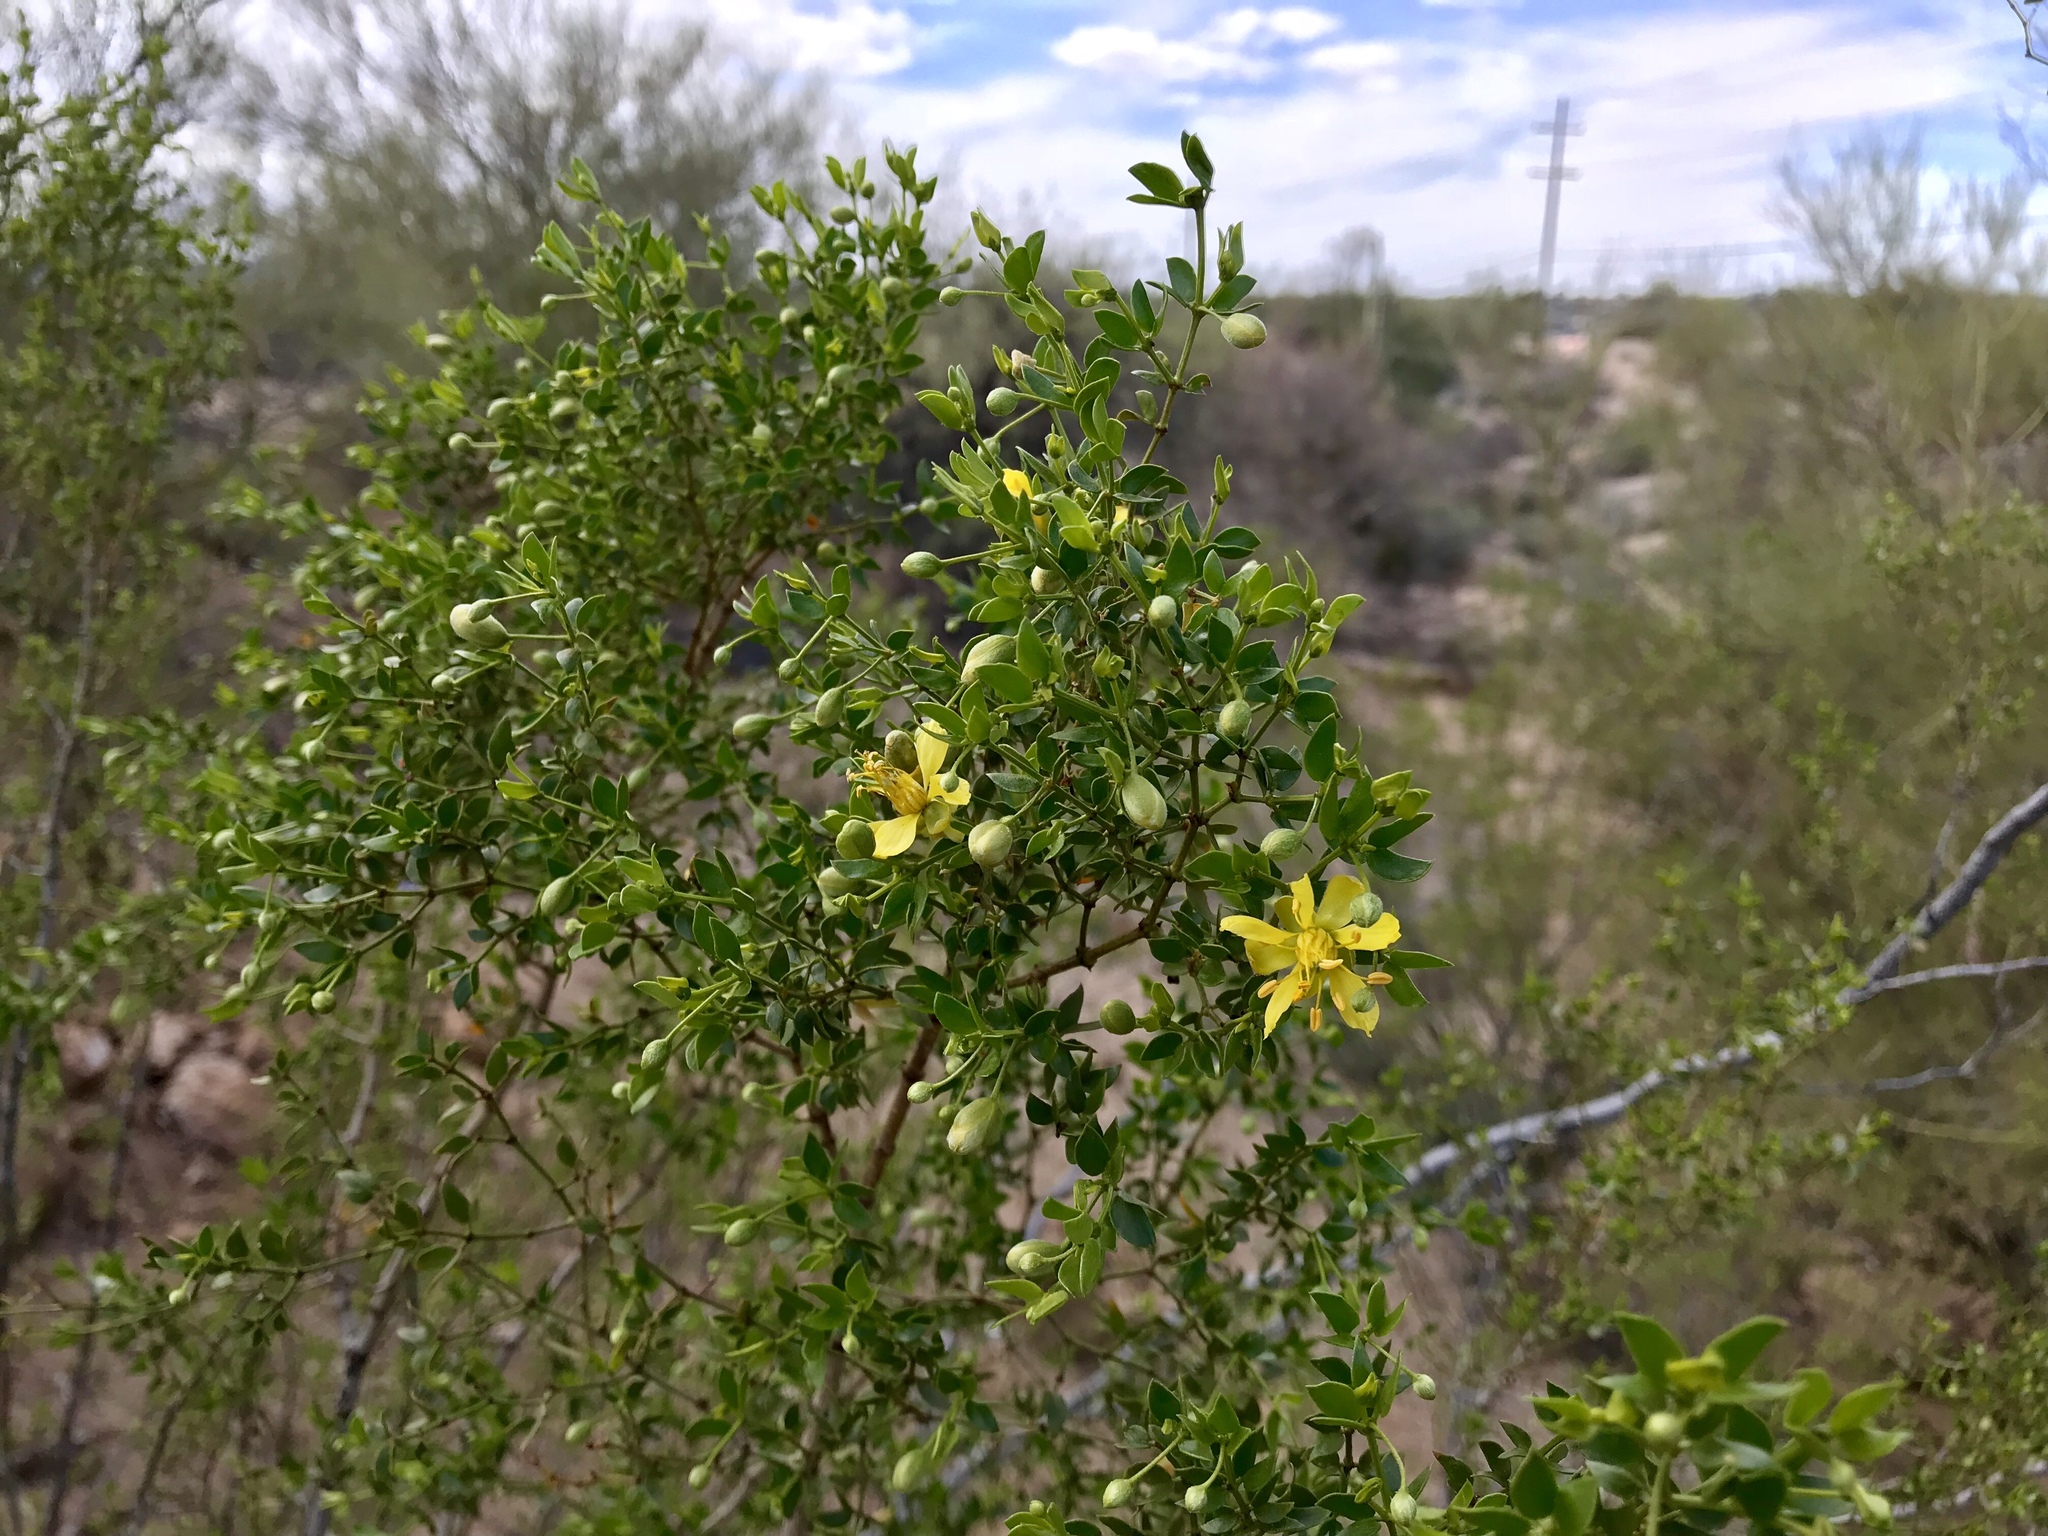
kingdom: Plantae
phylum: Tracheophyta
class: Magnoliopsida
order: Zygophyllales
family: Zygophyllaceae
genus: Larrea
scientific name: Larrea tridentata
